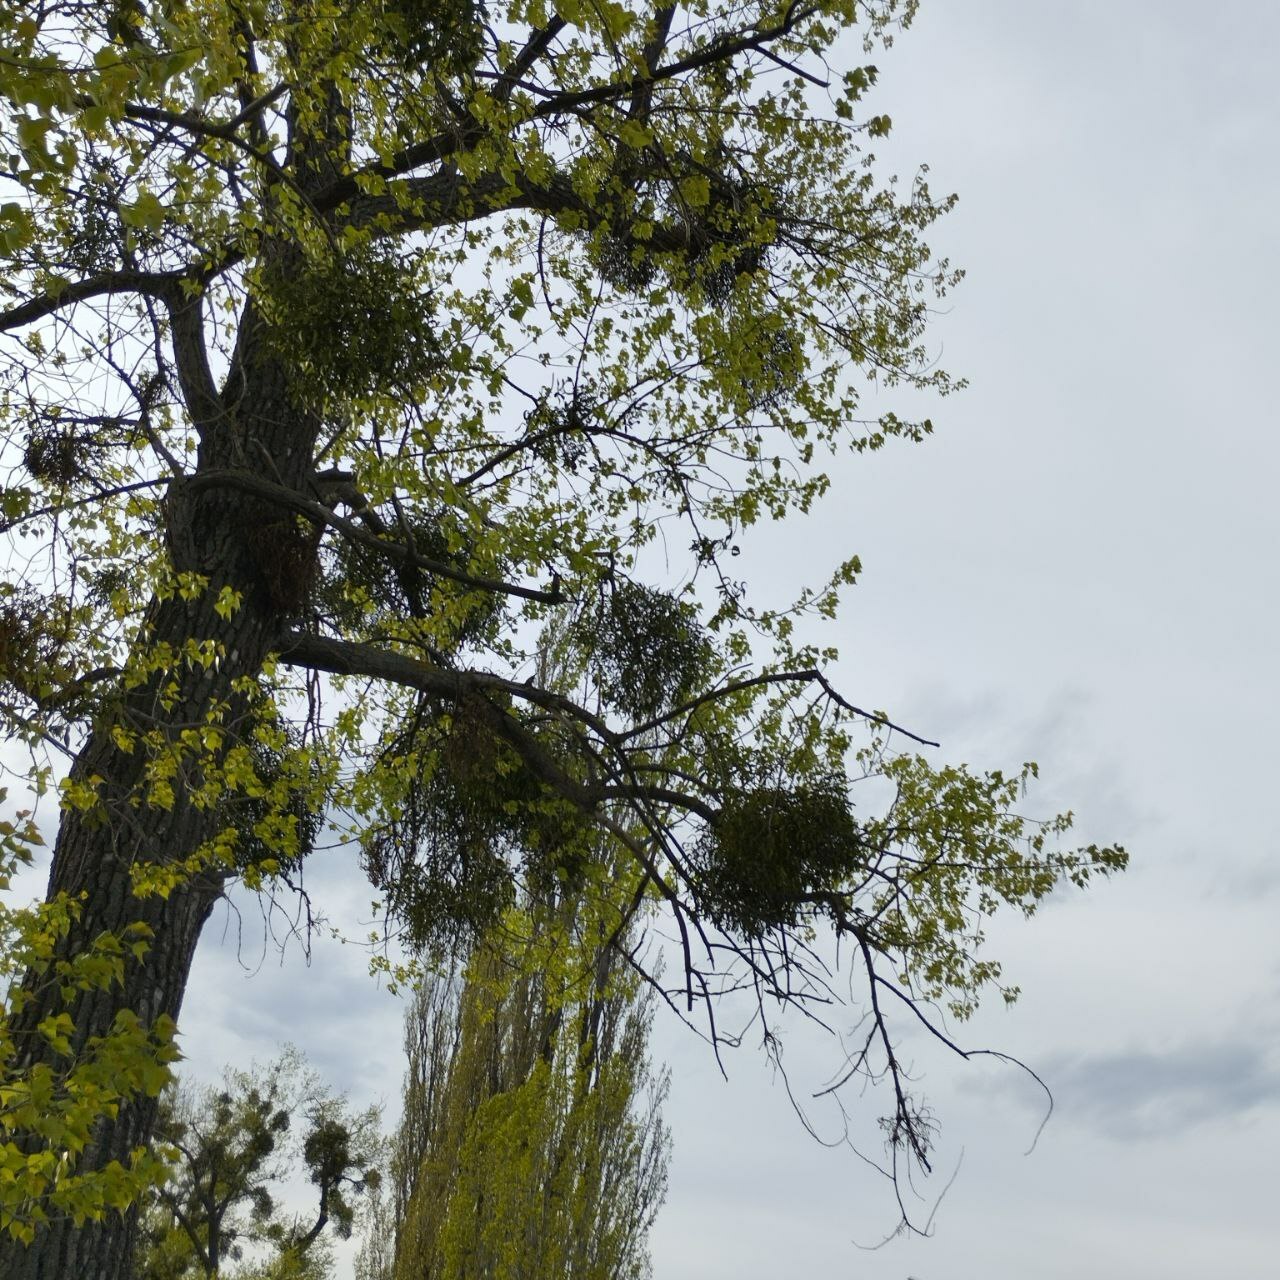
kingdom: Plantae
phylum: Tracheophyta
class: Magnoliopsida
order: Santalales
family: Viscaceae
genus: Viscum
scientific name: Viscum album
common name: Mistletoe
